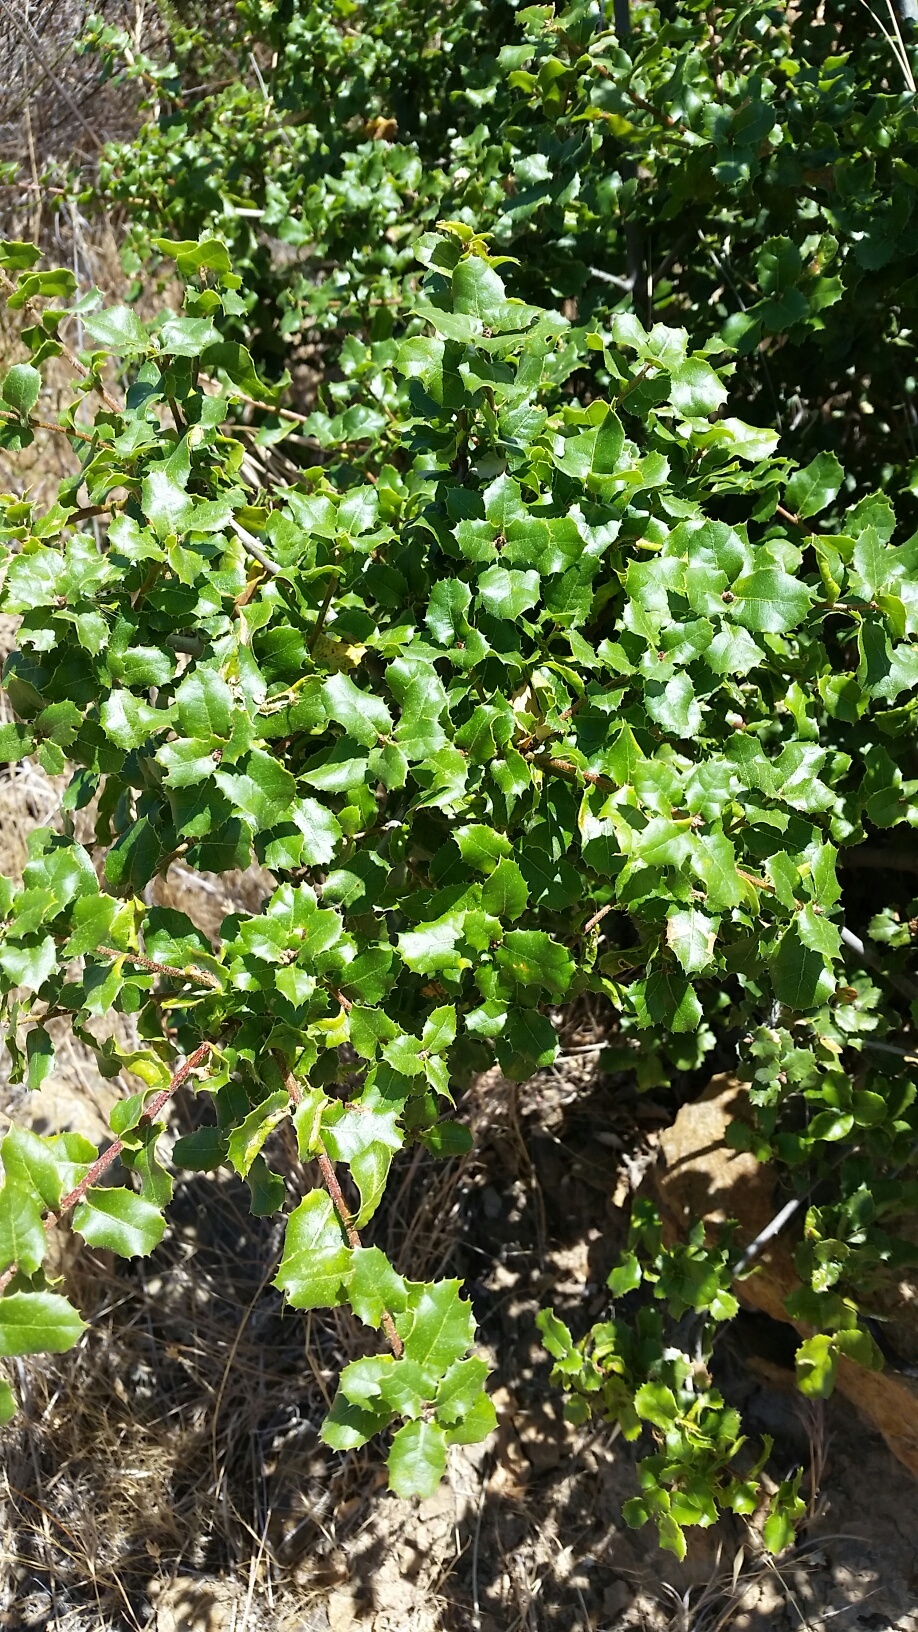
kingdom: Plantae
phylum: Tracheophyta
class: Magnoliopsida
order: Fagales
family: Fagaceae
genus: Quercus
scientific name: Quercus wislizeni
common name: Interior live oak
